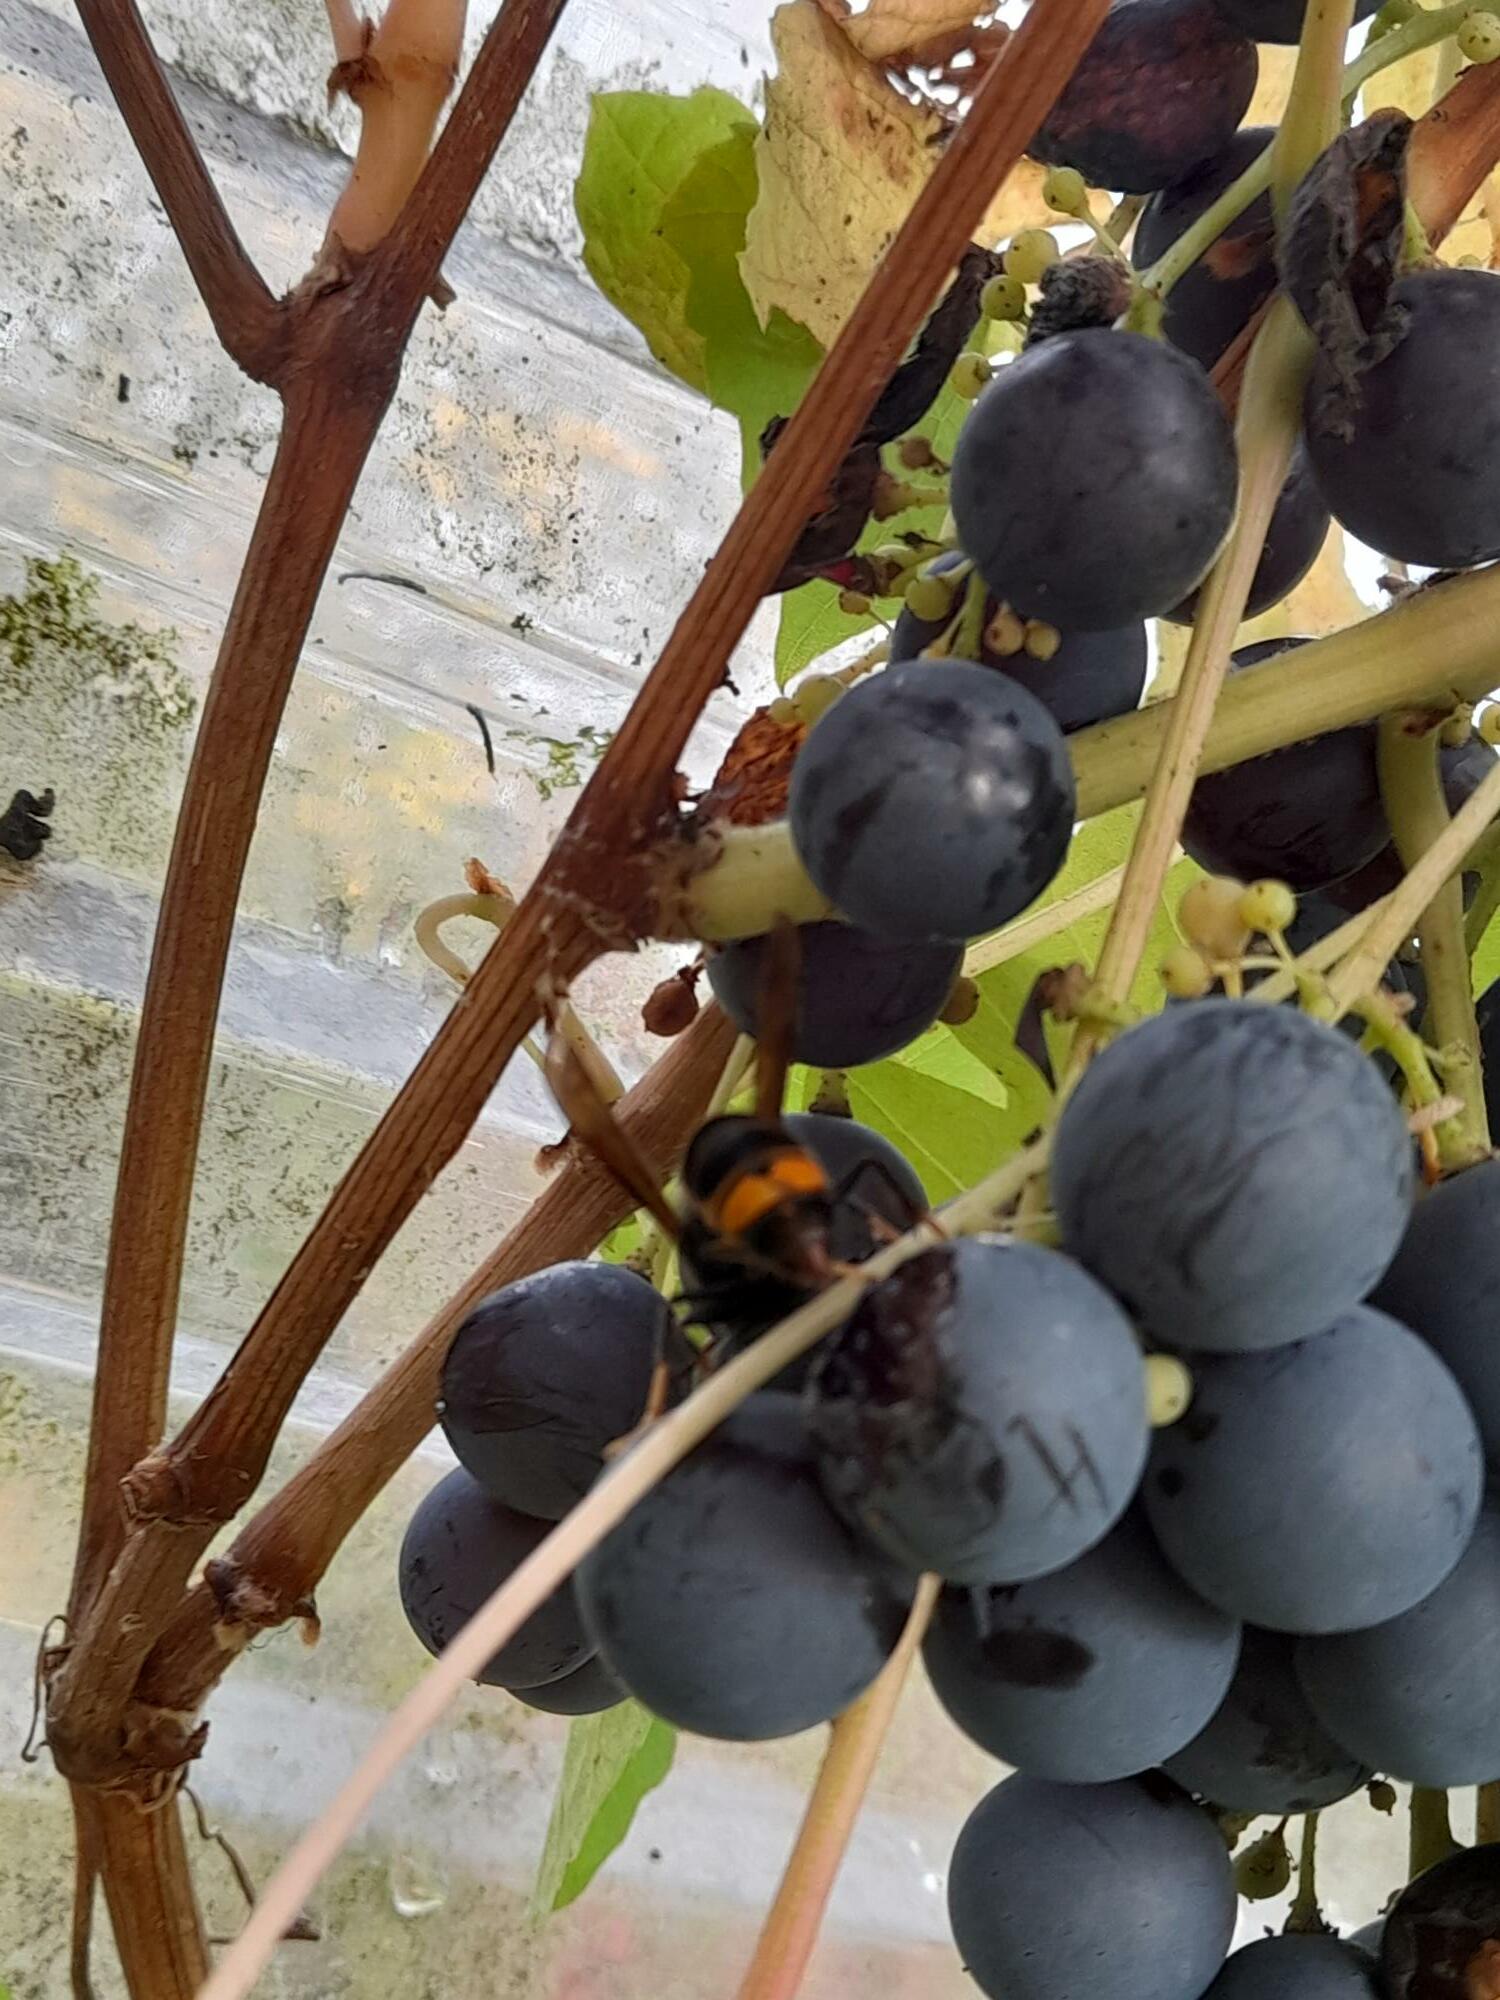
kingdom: Animalia
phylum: Arthropoda
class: Insecta
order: Hymenoptera
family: Vespidae
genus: Vespa
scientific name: Vespa velutina
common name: Asian hornet
